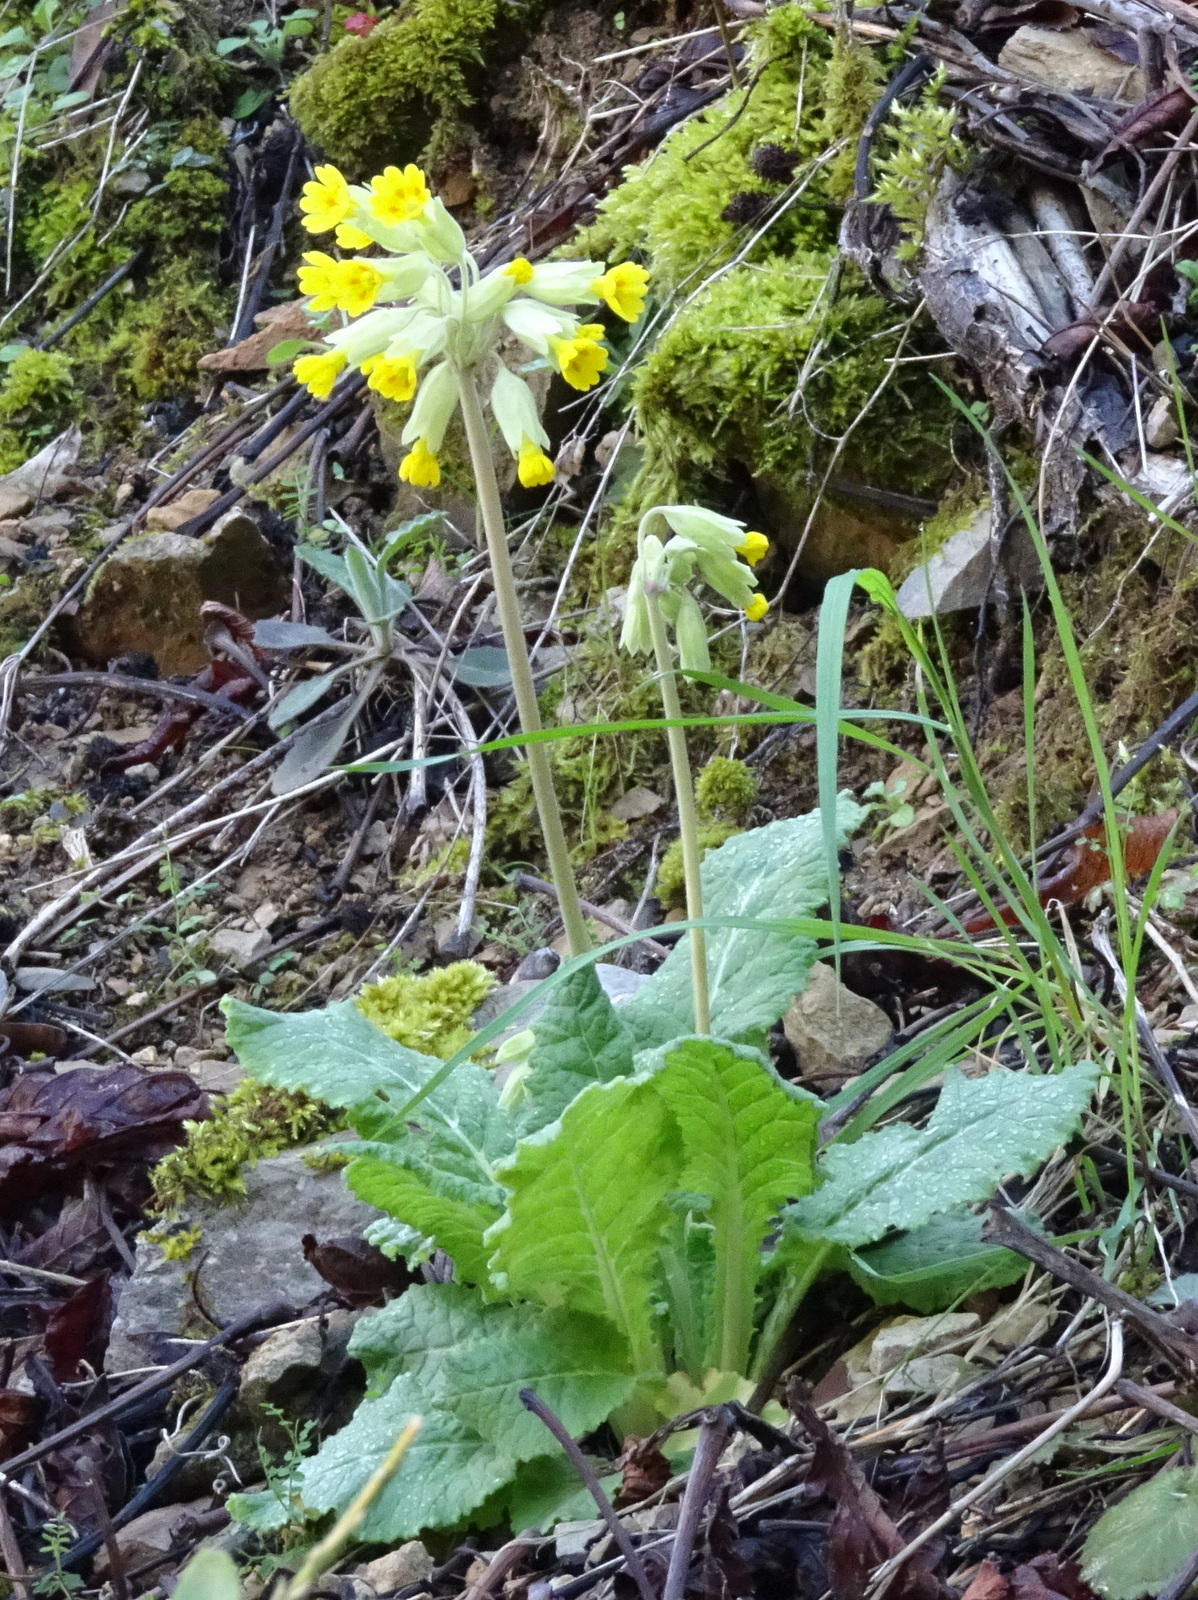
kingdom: Plantae
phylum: Tracheophyta
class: Magnoliopsida
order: Ericales
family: Primulaceae
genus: Primula
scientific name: Primula veris
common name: Cowslip
